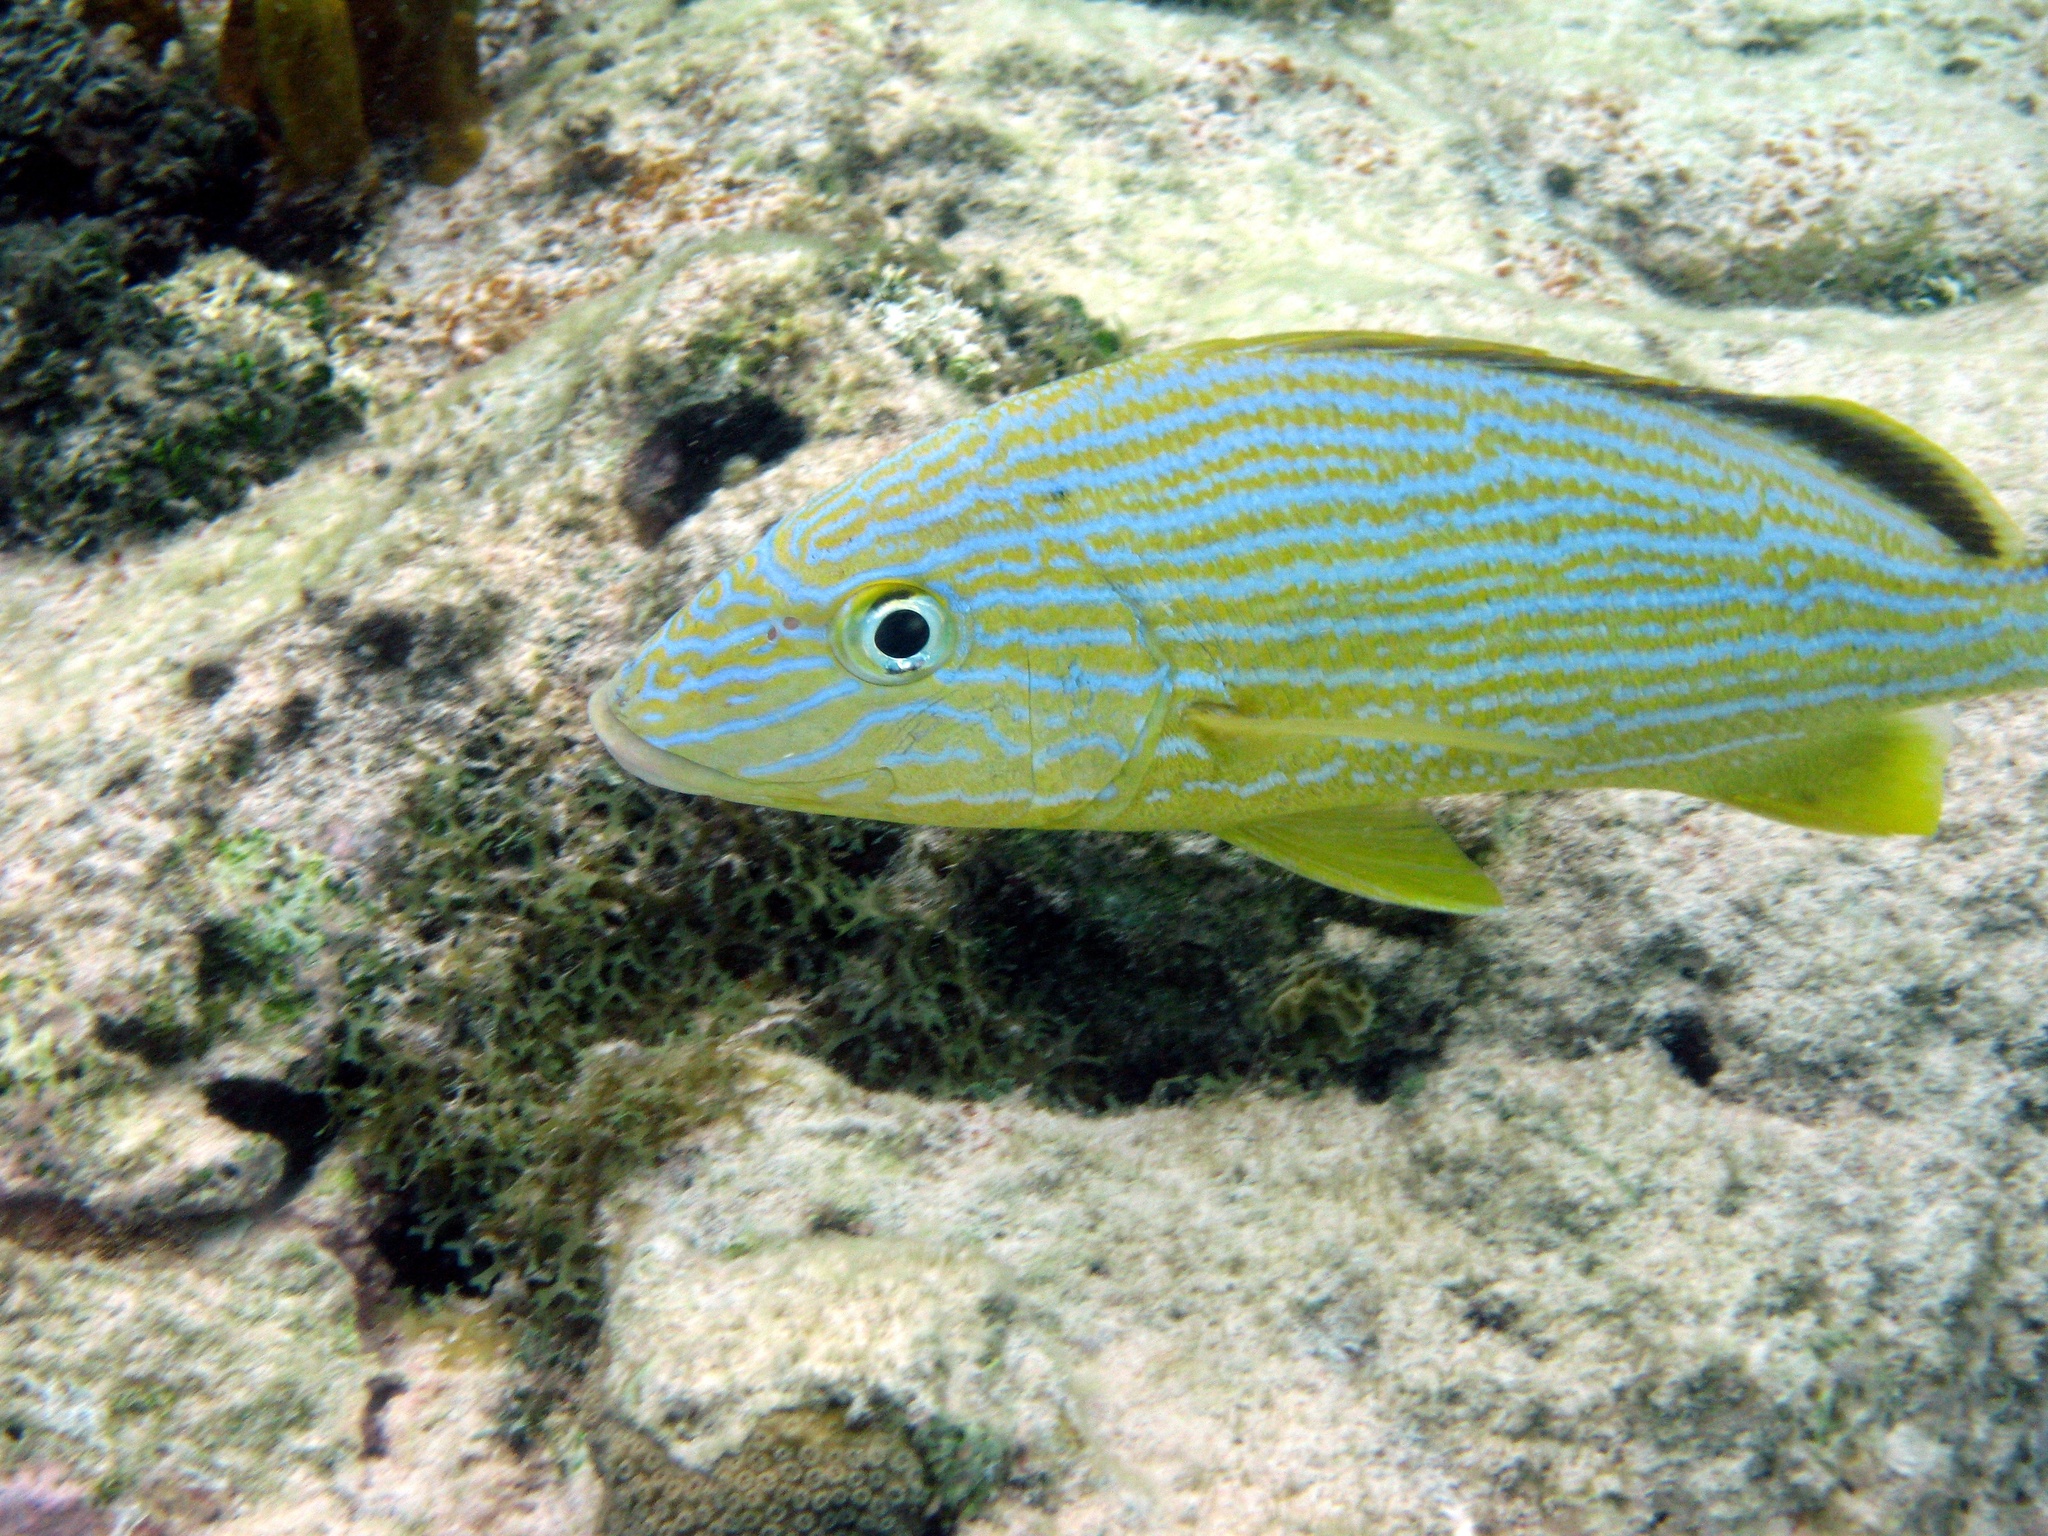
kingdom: Animalia
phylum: Chordata
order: Perciformes
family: Haemulidae
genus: Haemulon
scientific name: Haemulon sciurus
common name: Bluestriped grunt
